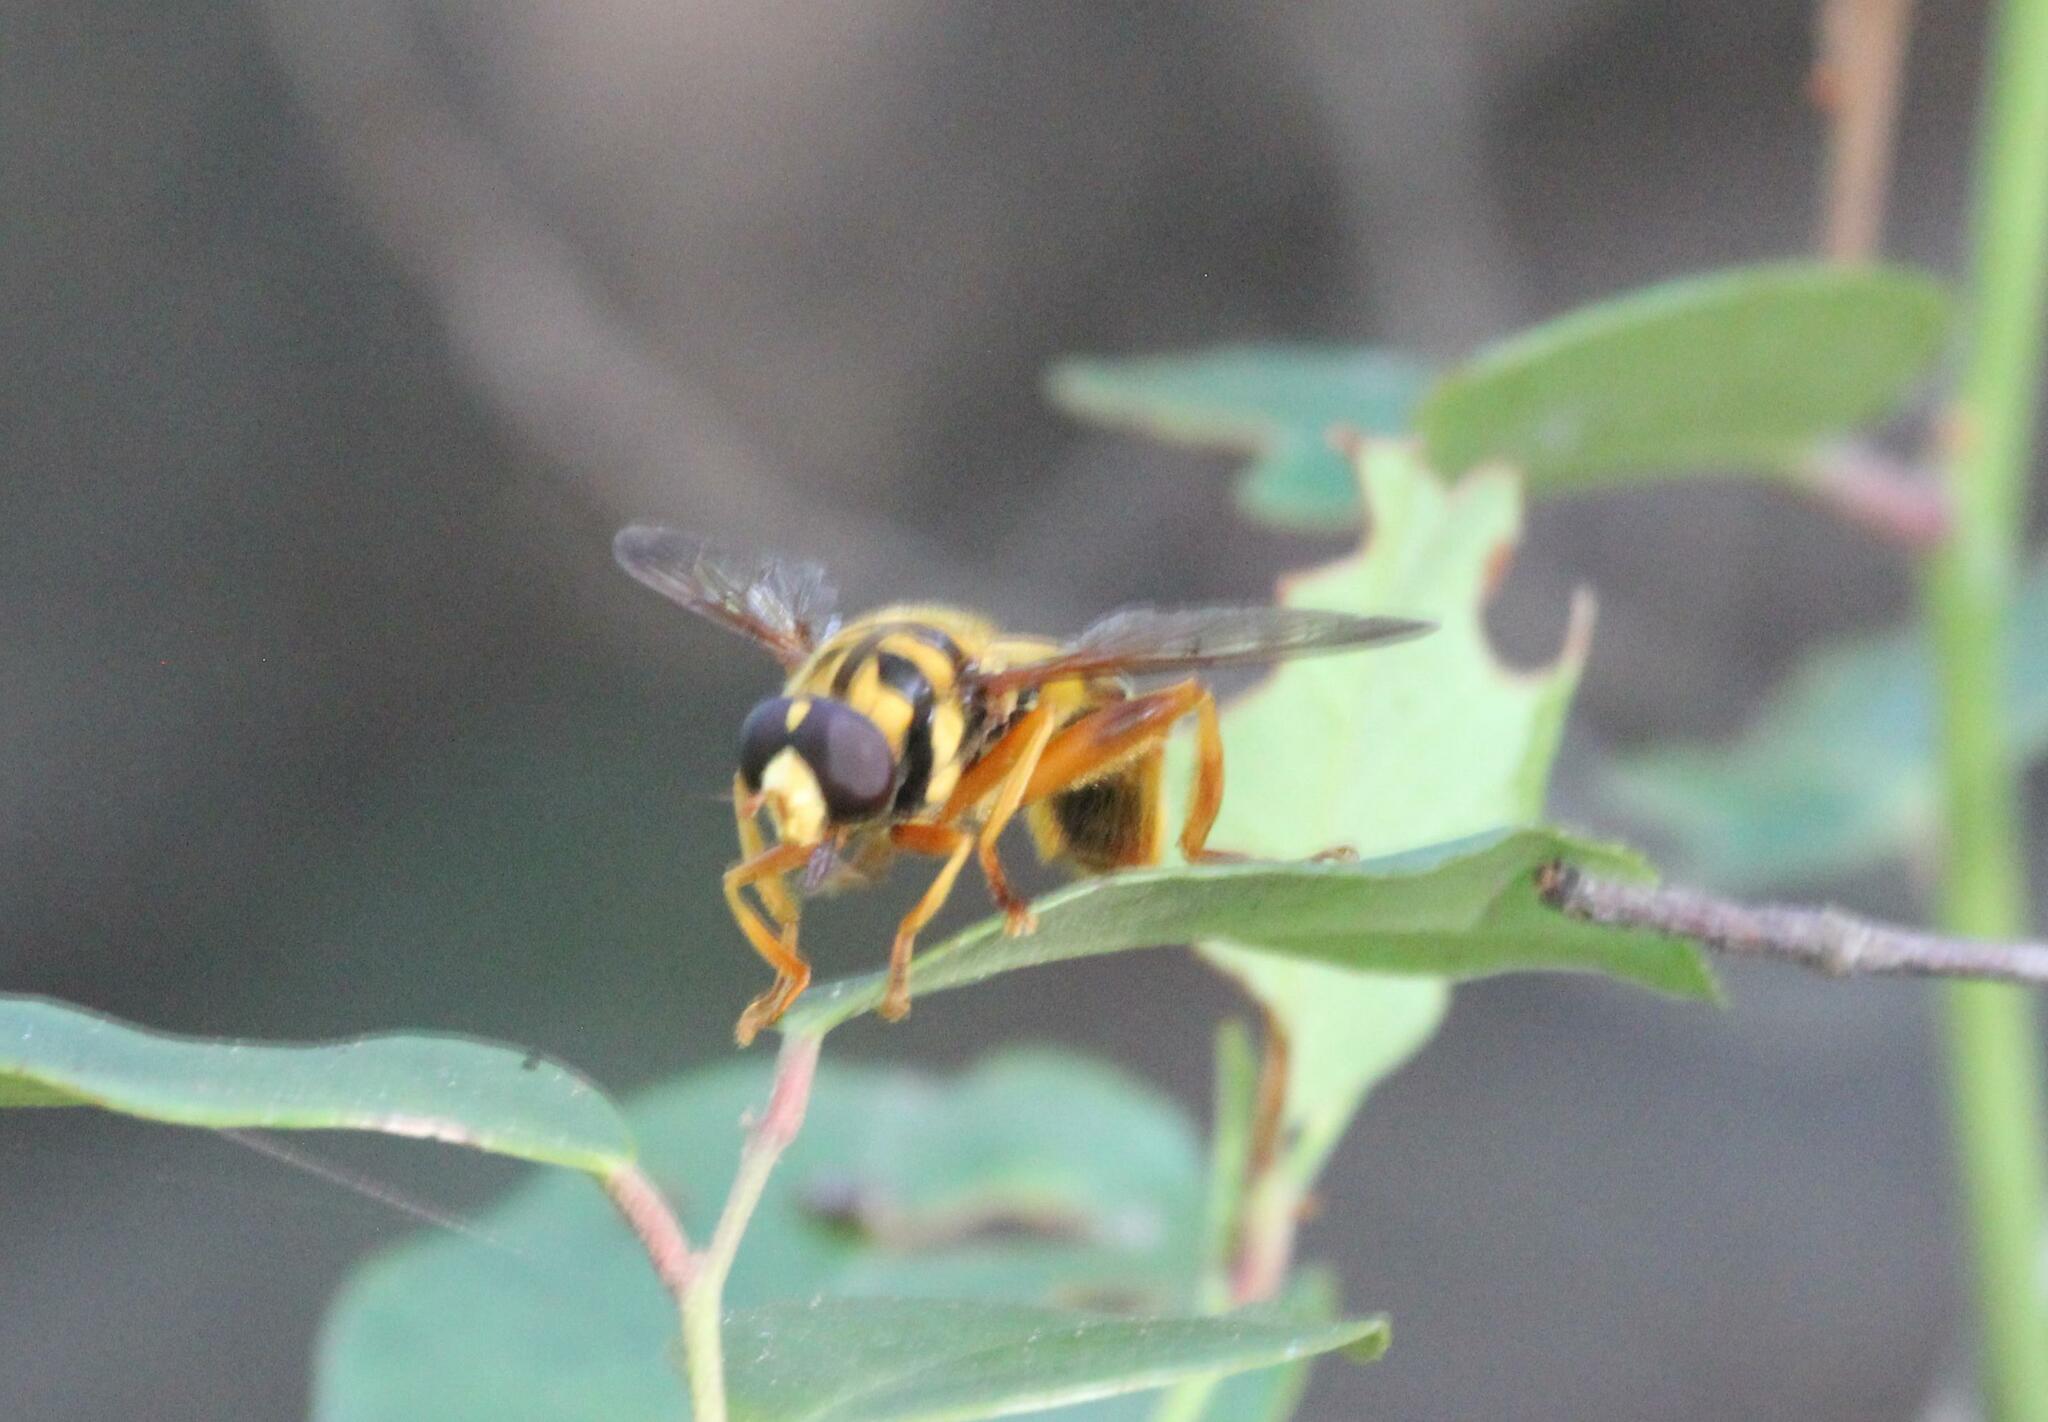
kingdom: Animalia
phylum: Arthropoda
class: Insecta
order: Diptera
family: Syrphidae
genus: Milesia
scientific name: Milesia virginiensis
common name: Virginia giant
